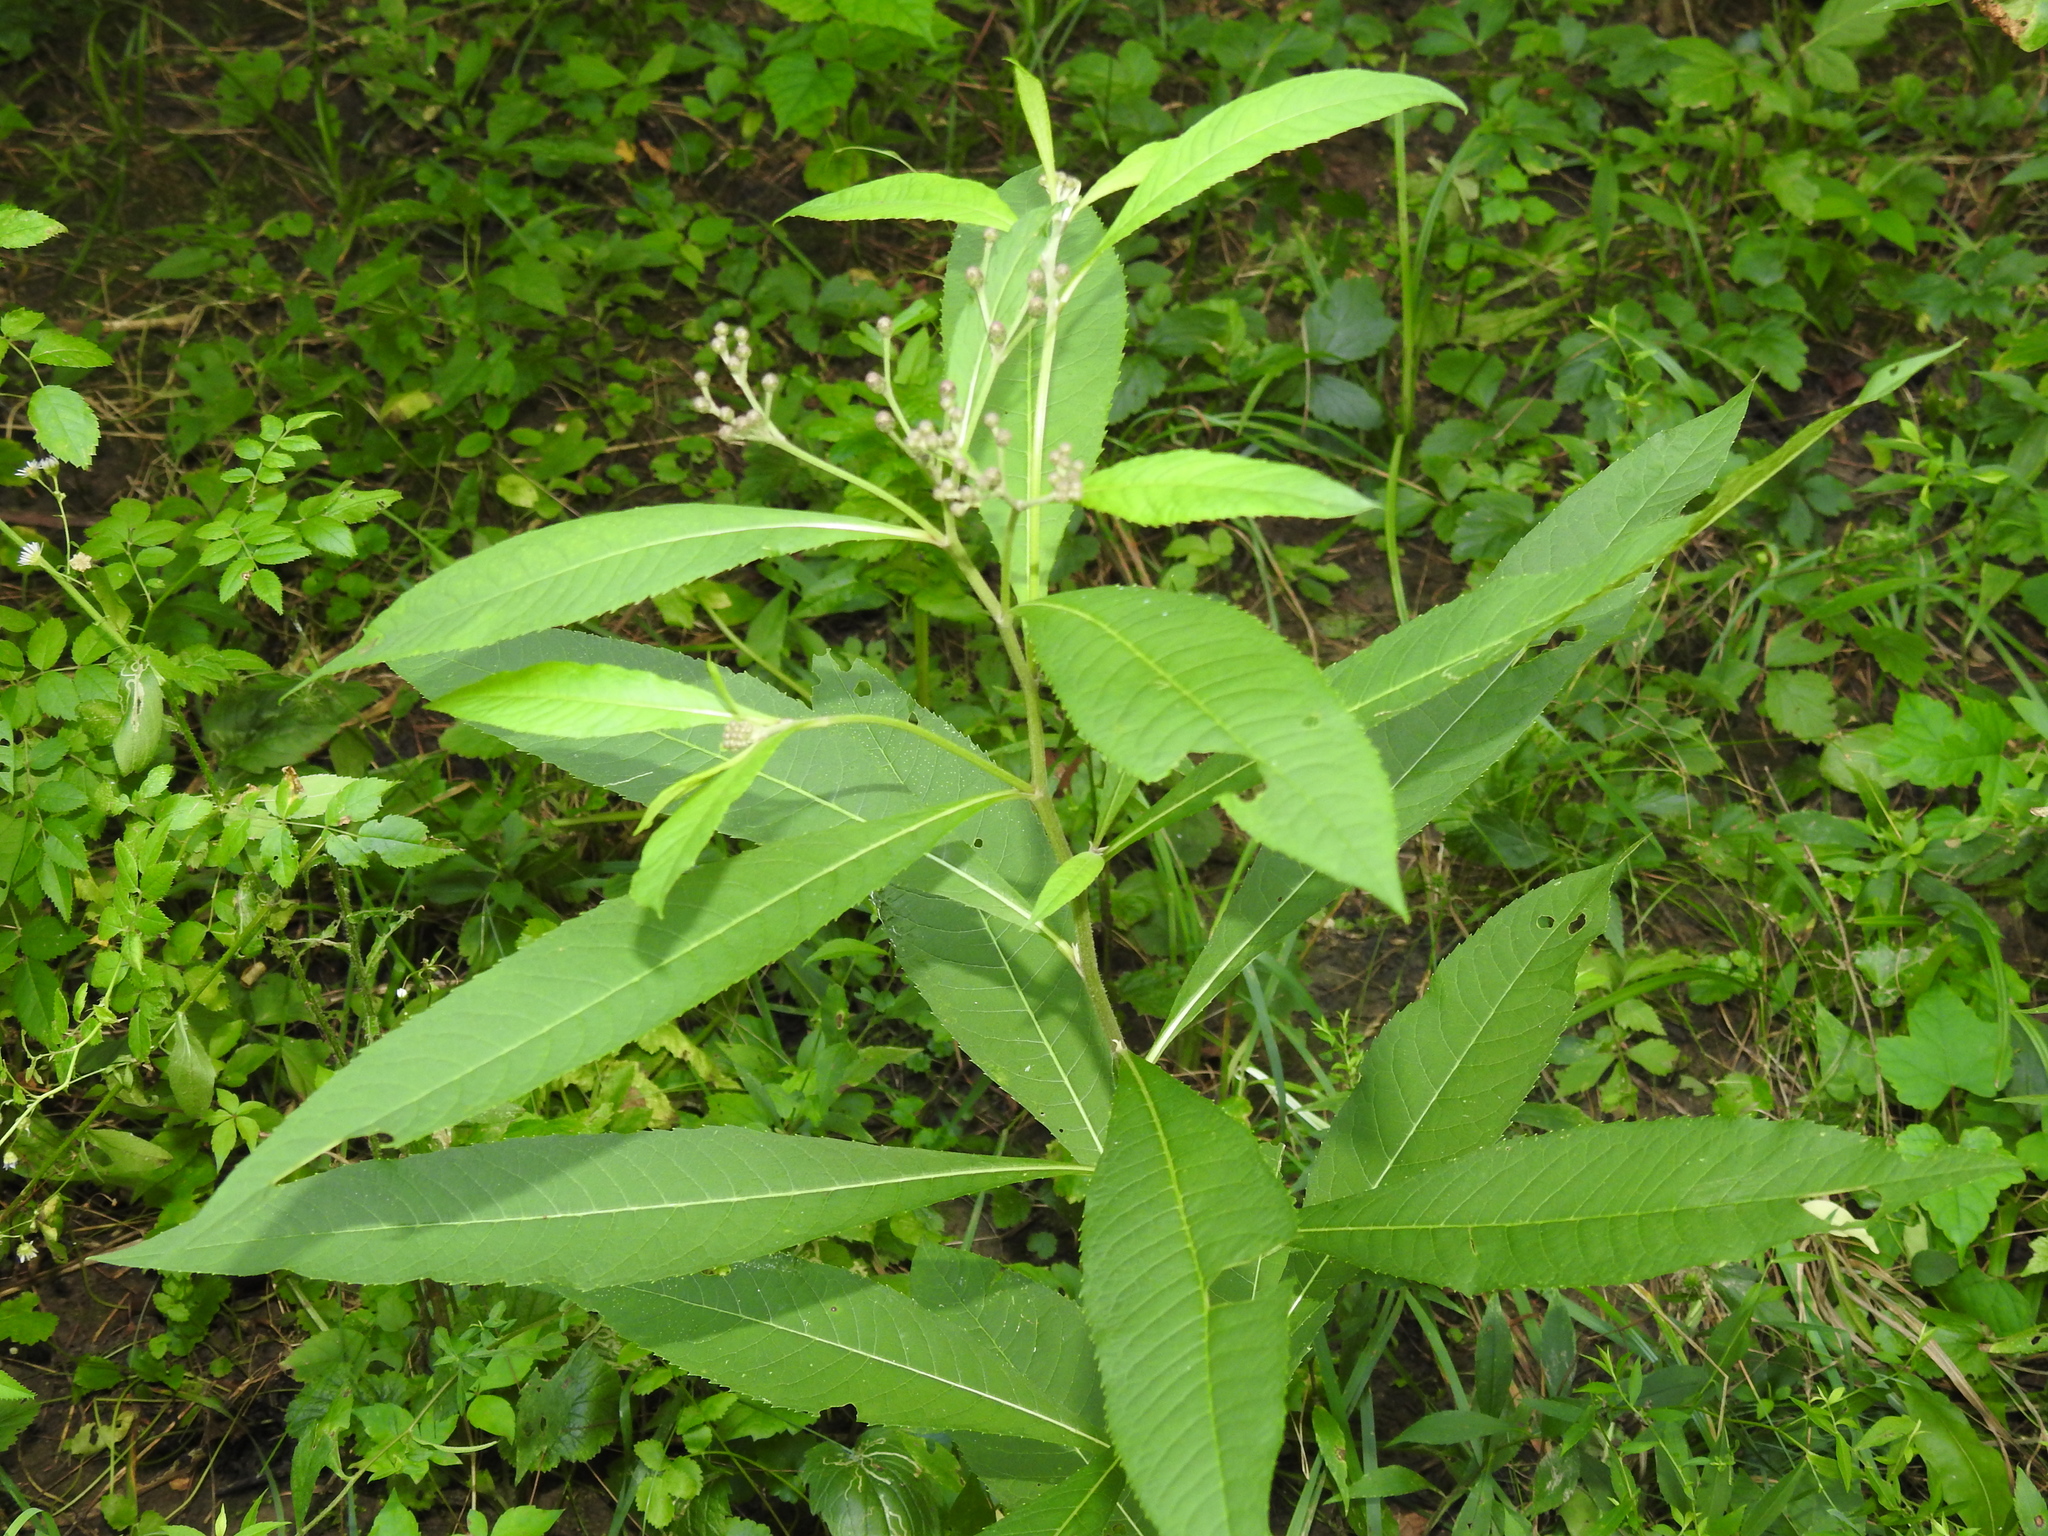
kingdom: Plantae
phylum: Tracheophyta
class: Magnoliopsida
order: Asterales
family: Asteraceae
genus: Vernonia
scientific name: Vernonia gigantea
